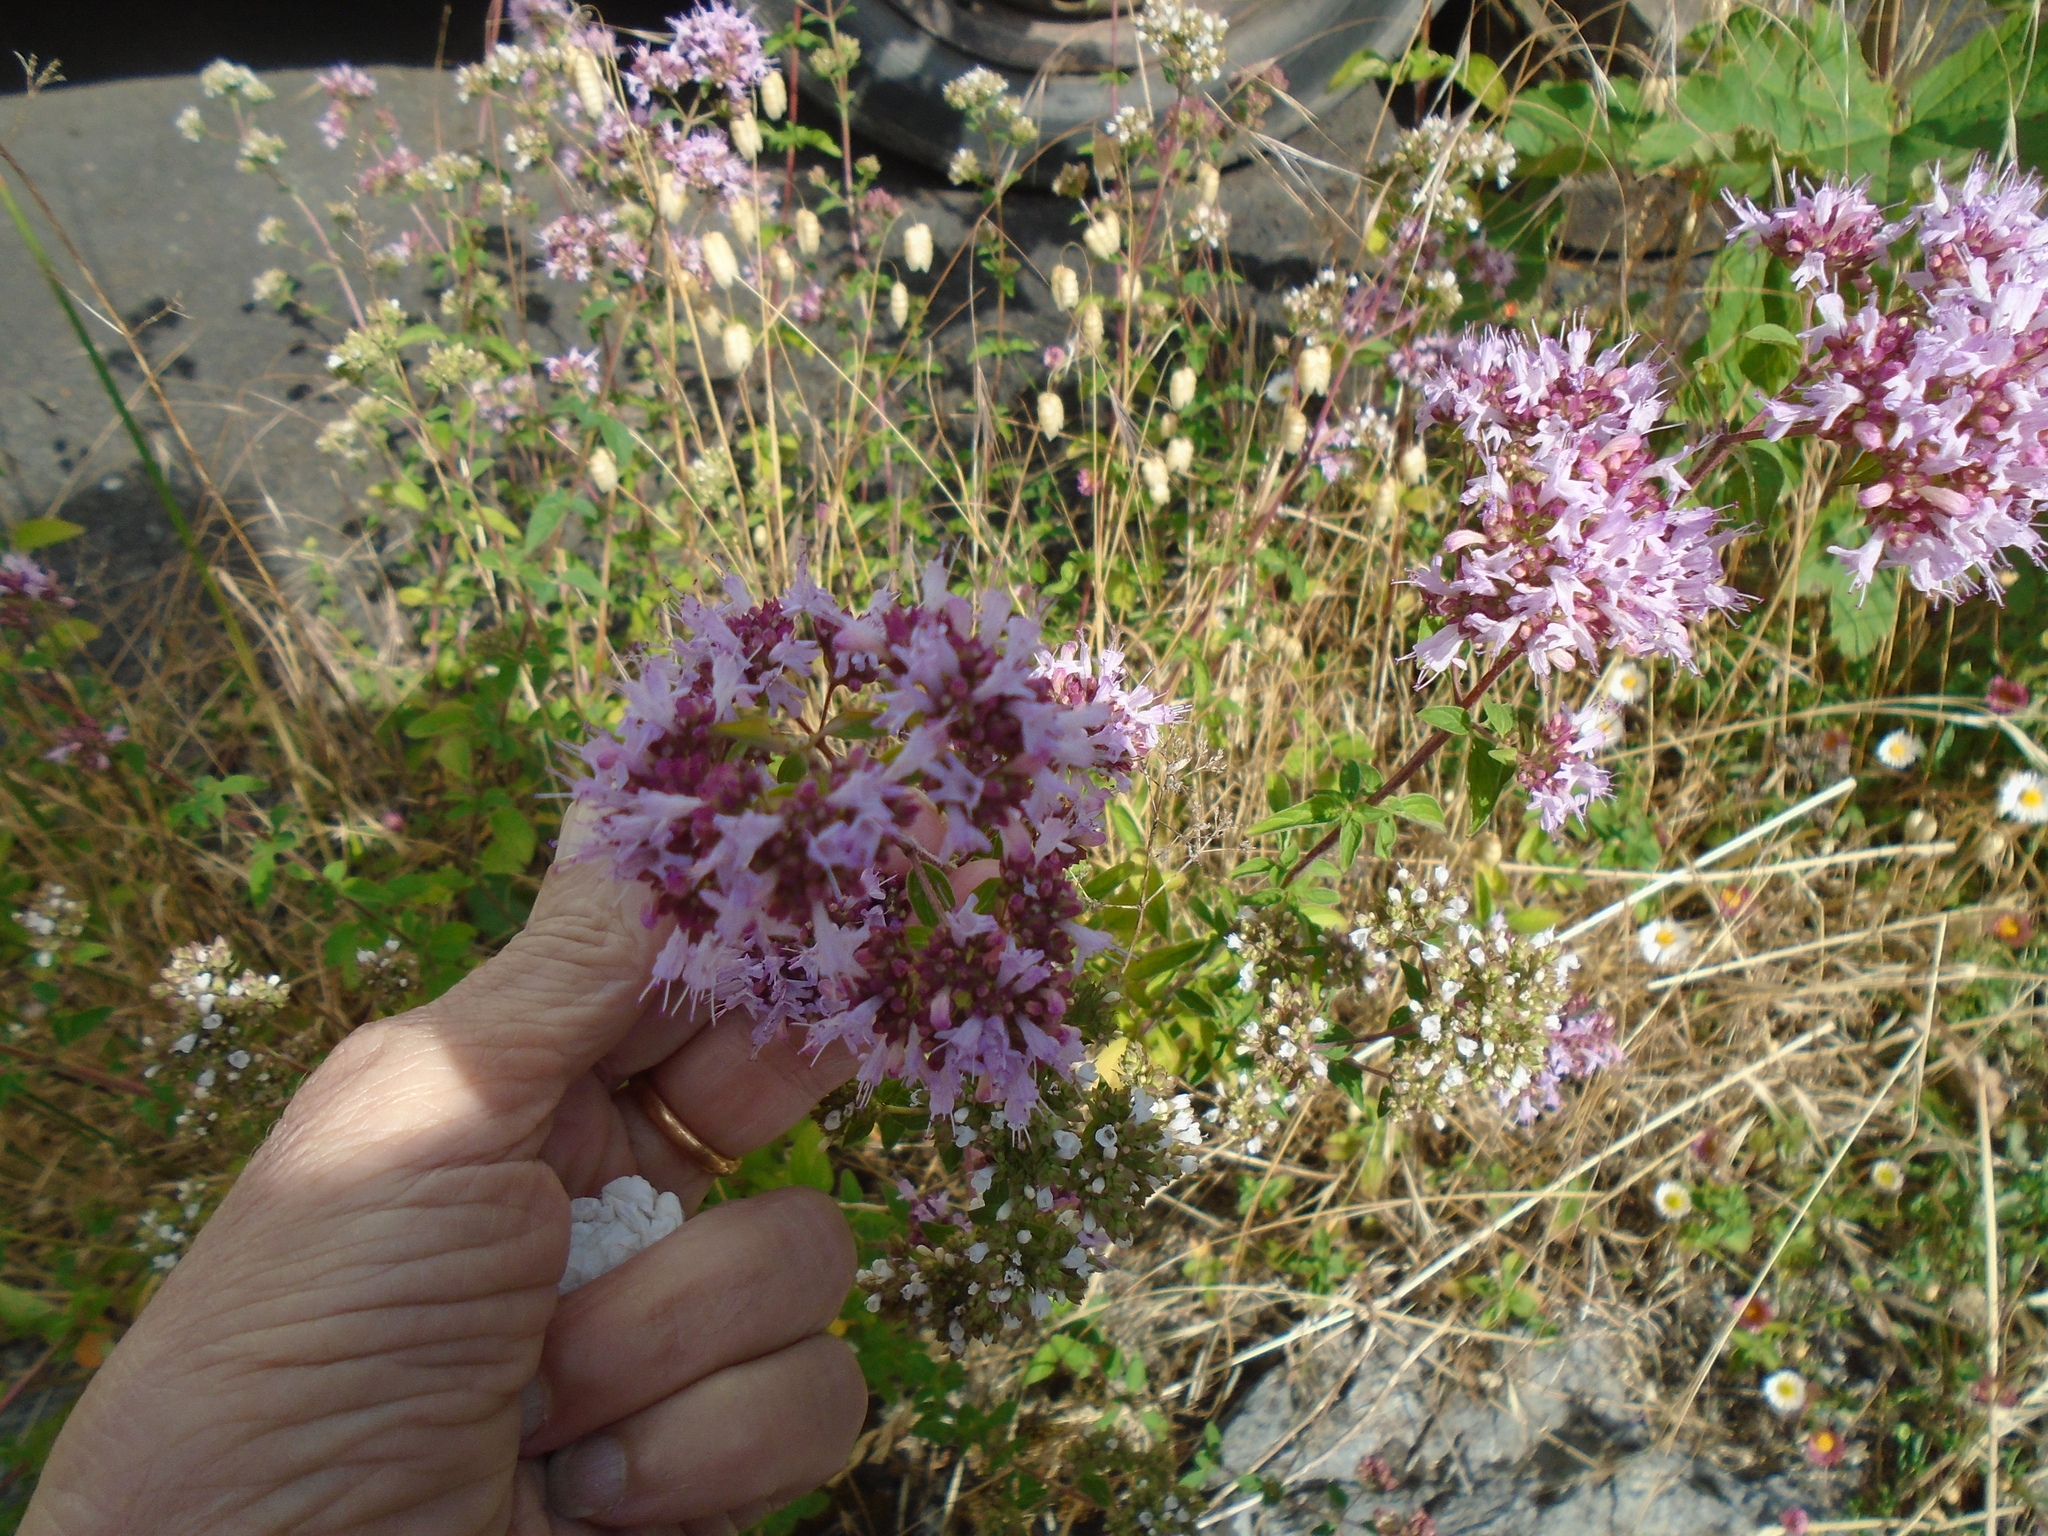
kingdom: Plantae
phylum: Tracheophyta
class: Magnoliopsida
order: Lamiales
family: Lamiaceae
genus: Origanum
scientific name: Origanum vulgare
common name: Wild marjoram
